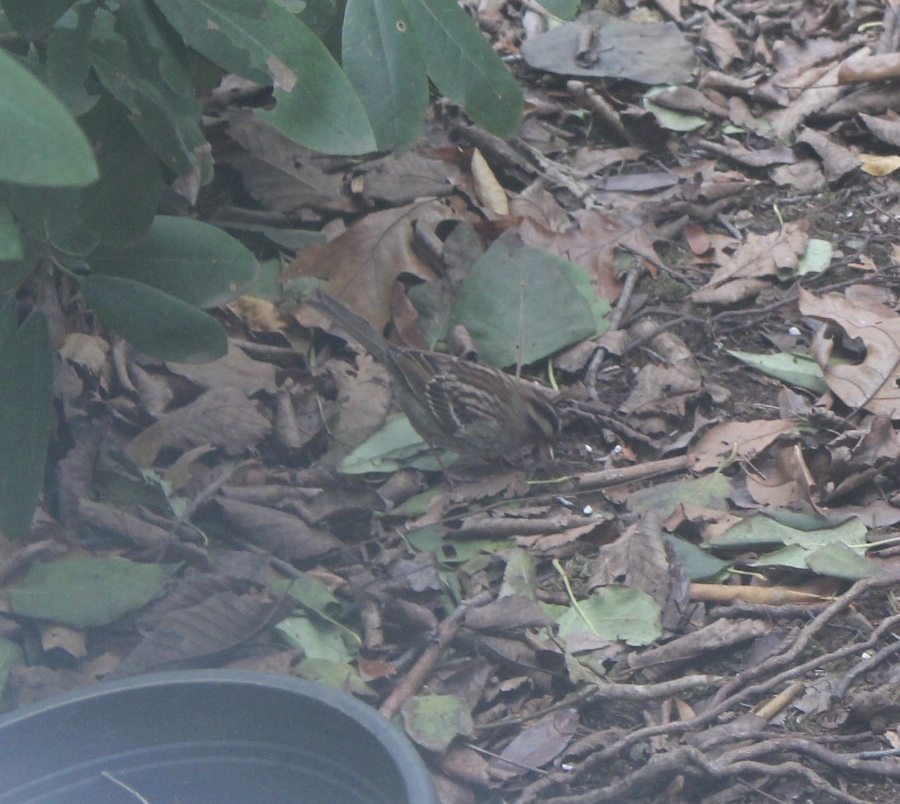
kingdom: Animalia
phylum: Chordata
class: Aves
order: Passeriformes
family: Passerellidae
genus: Zonotrichia
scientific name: Zonotrichia albicollis
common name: White-throated sparrow
